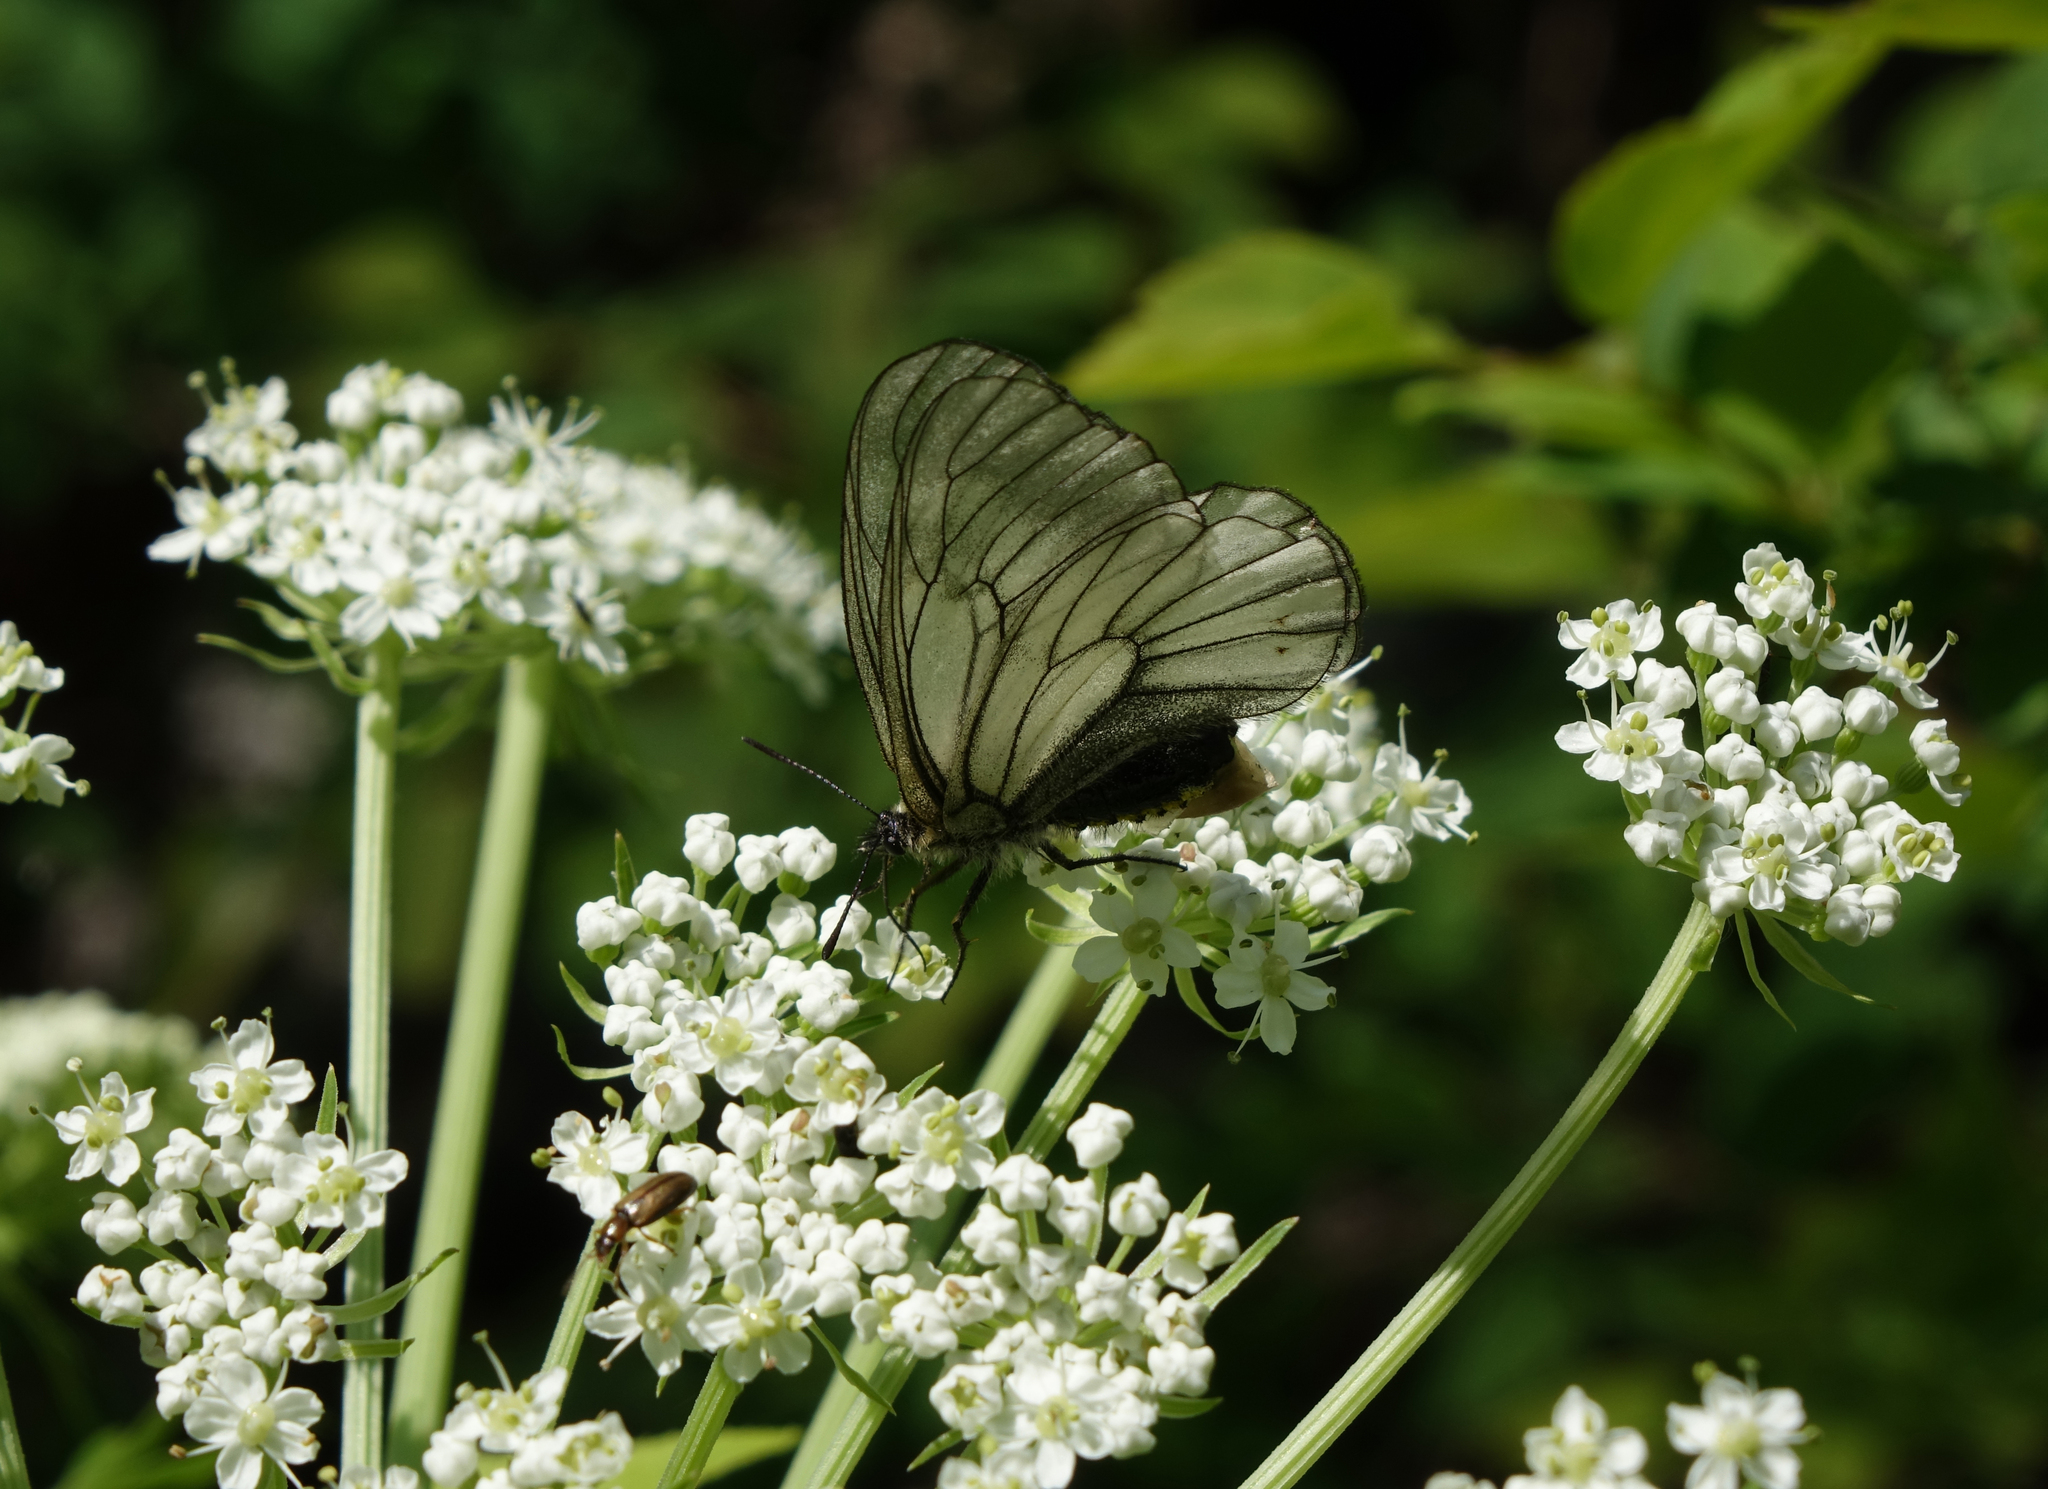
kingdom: Animalia
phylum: Arthropoda
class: Insecta
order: Lepidoptera
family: Papilionidae
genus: Parnassius
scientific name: Parnassius stubbendorfii
